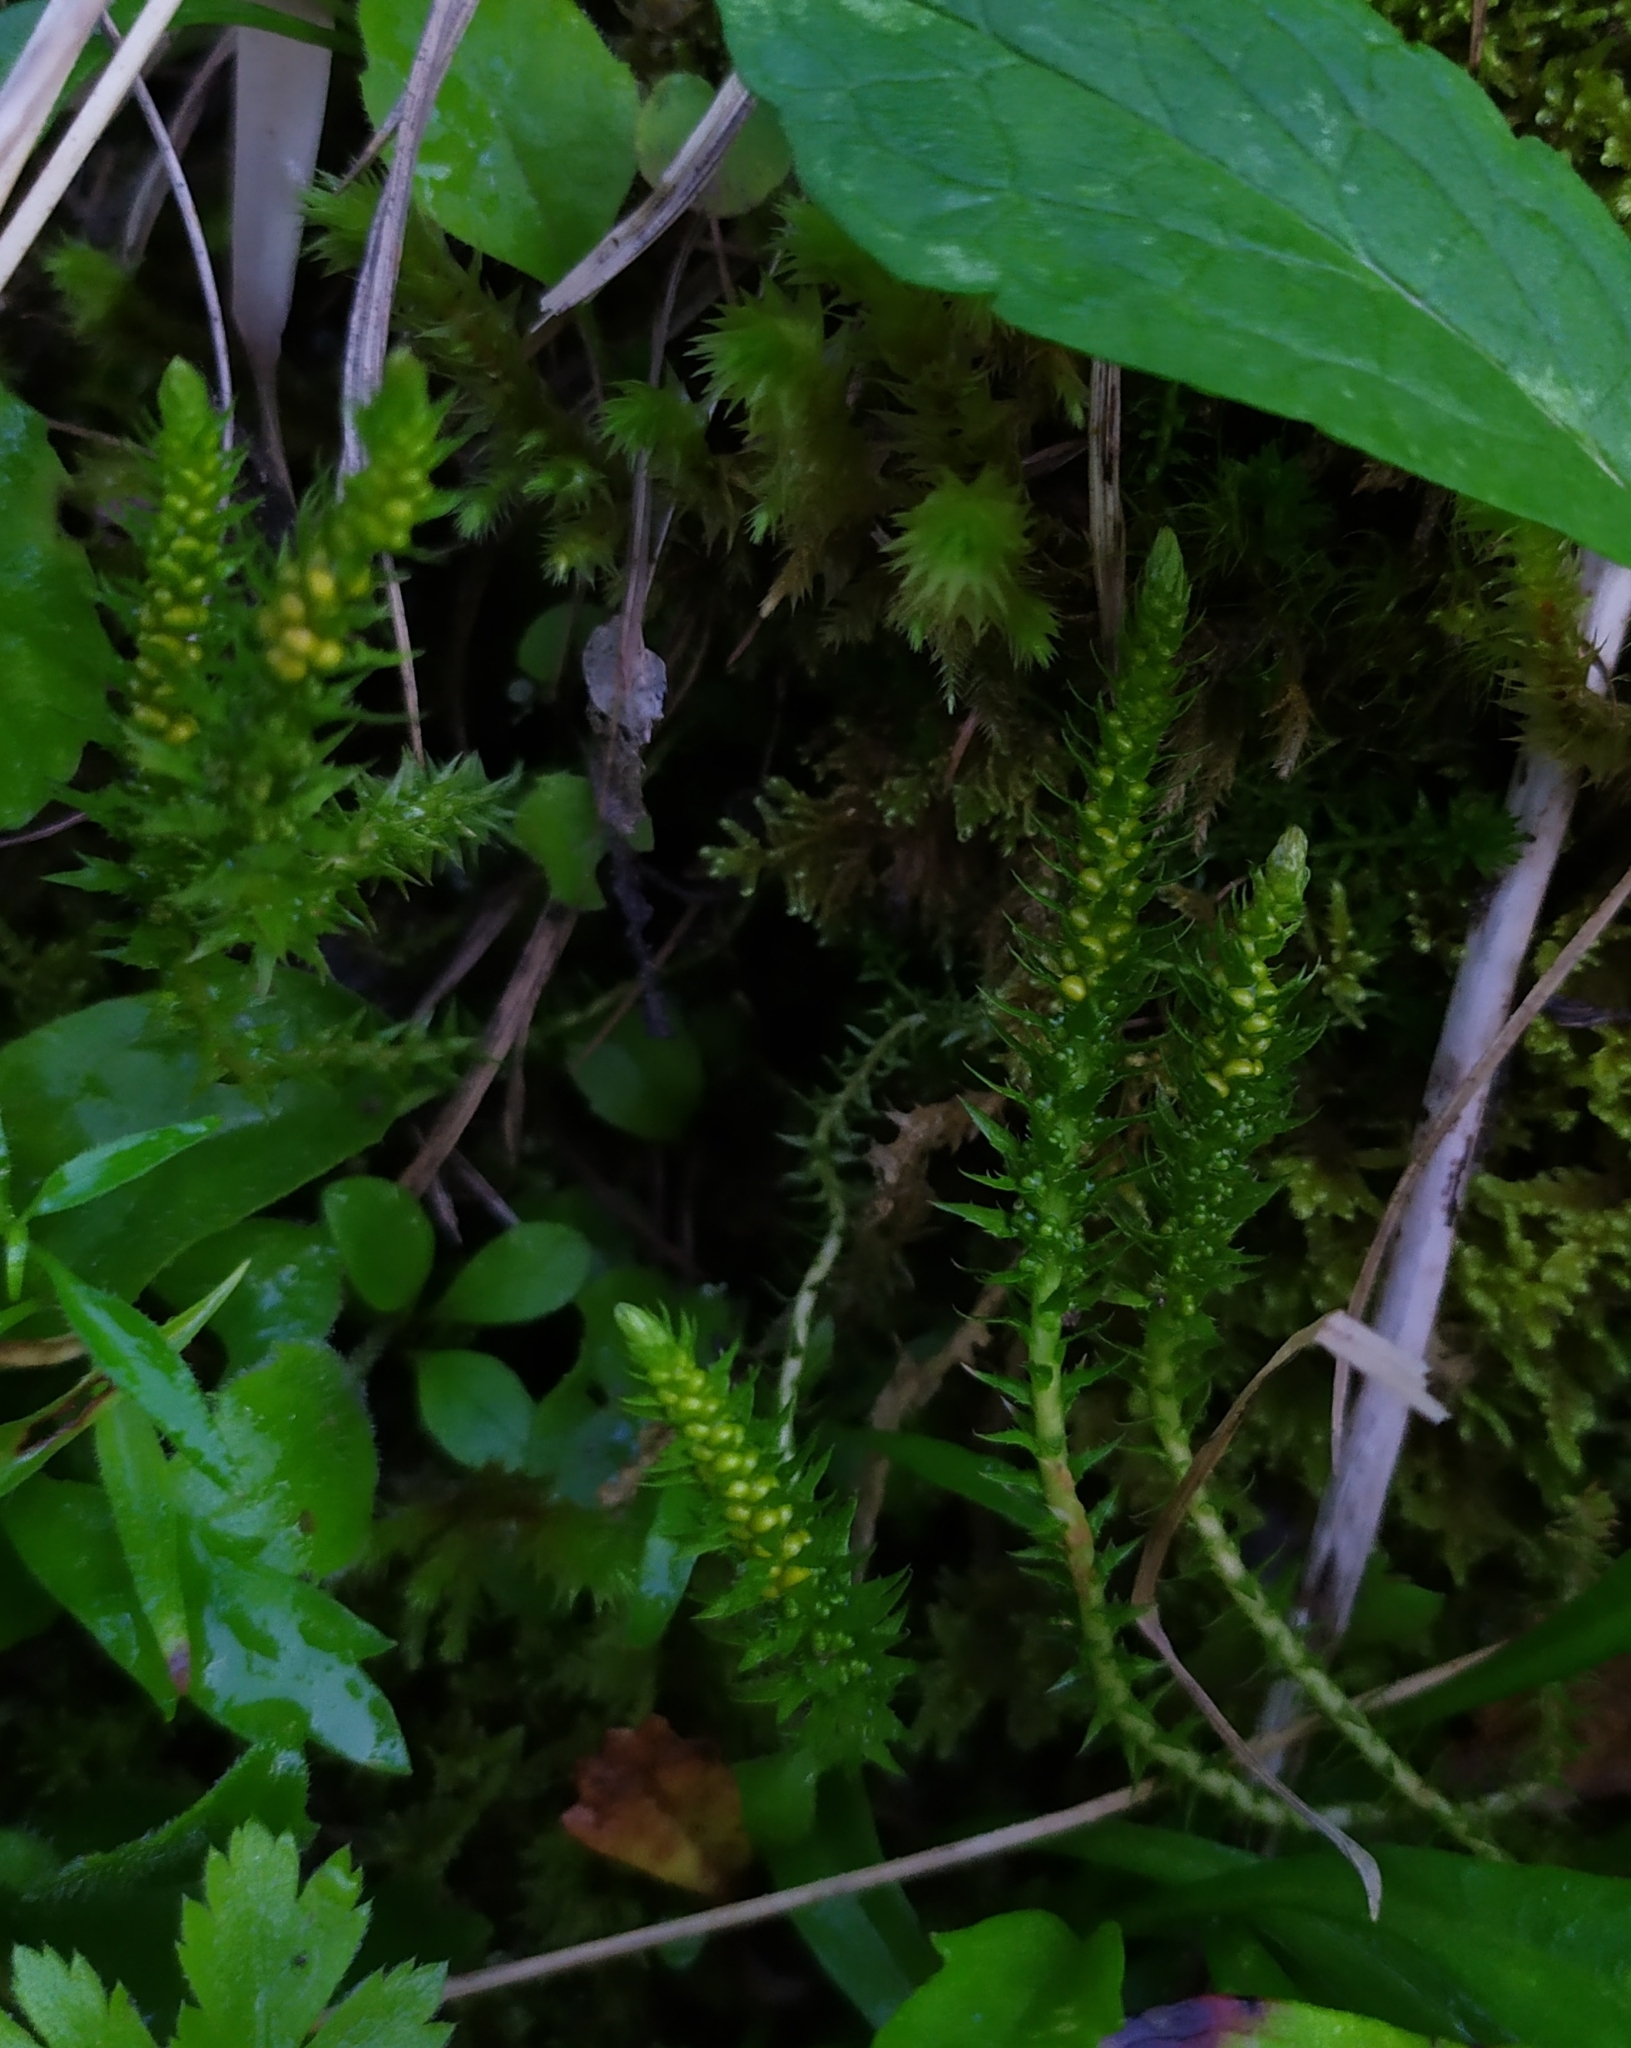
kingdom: Plantae
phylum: Tracheophyta
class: Lycopodiopsida
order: Selaginellales
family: Selaginellaceae
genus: Selaginella
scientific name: Selaginella selaginoides
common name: Prickly mountain-moss
